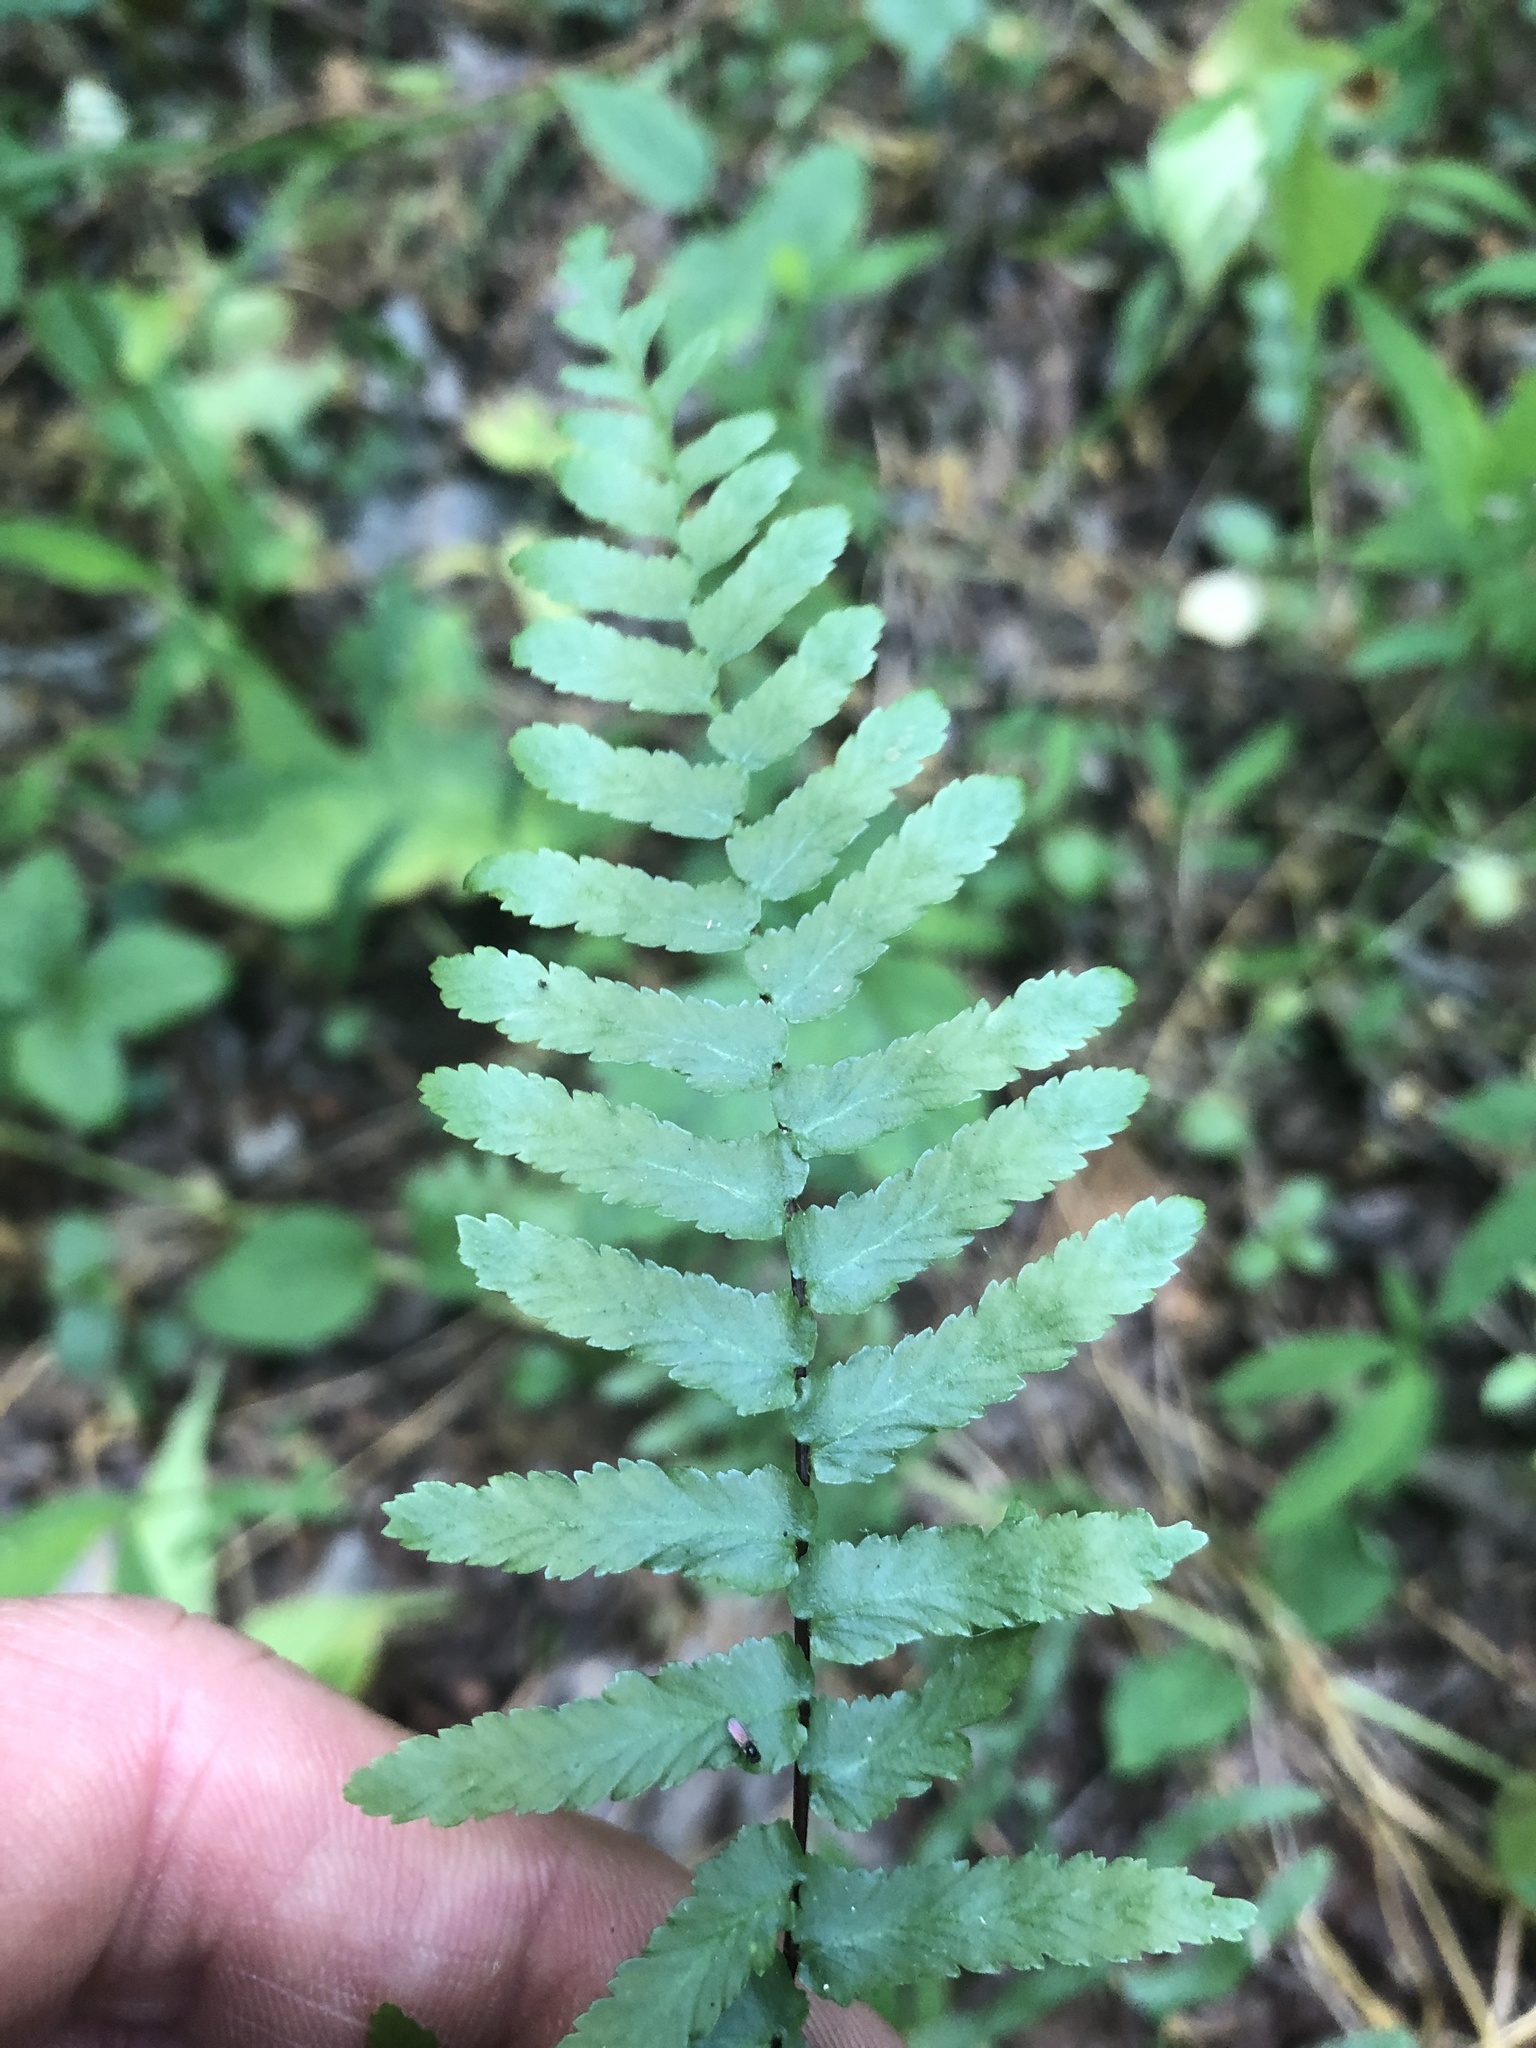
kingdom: Plantae
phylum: Tracheophyta
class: Polypodiopsida
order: Polypodiales
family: Aspleniaceae
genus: Asplenium
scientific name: Asplenium platyneuron
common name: Ebony spleenwort
